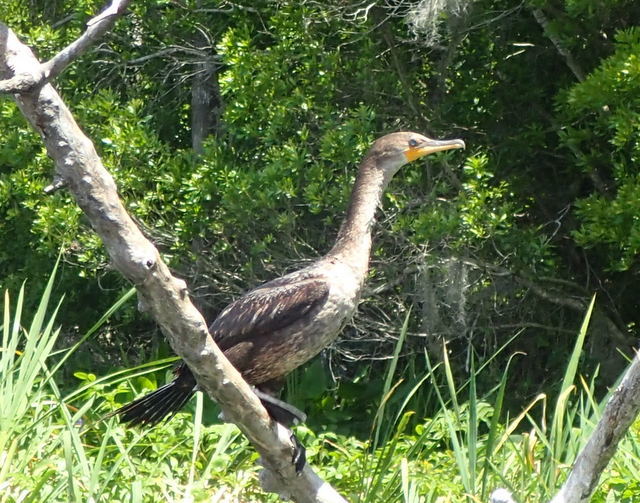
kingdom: Animalia
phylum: Chordata
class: Aves
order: Suliformes
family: Phalacrocoracidae
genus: Phalacrocorax
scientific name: Phalacrocorax auritus
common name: Double-crested cormorant
